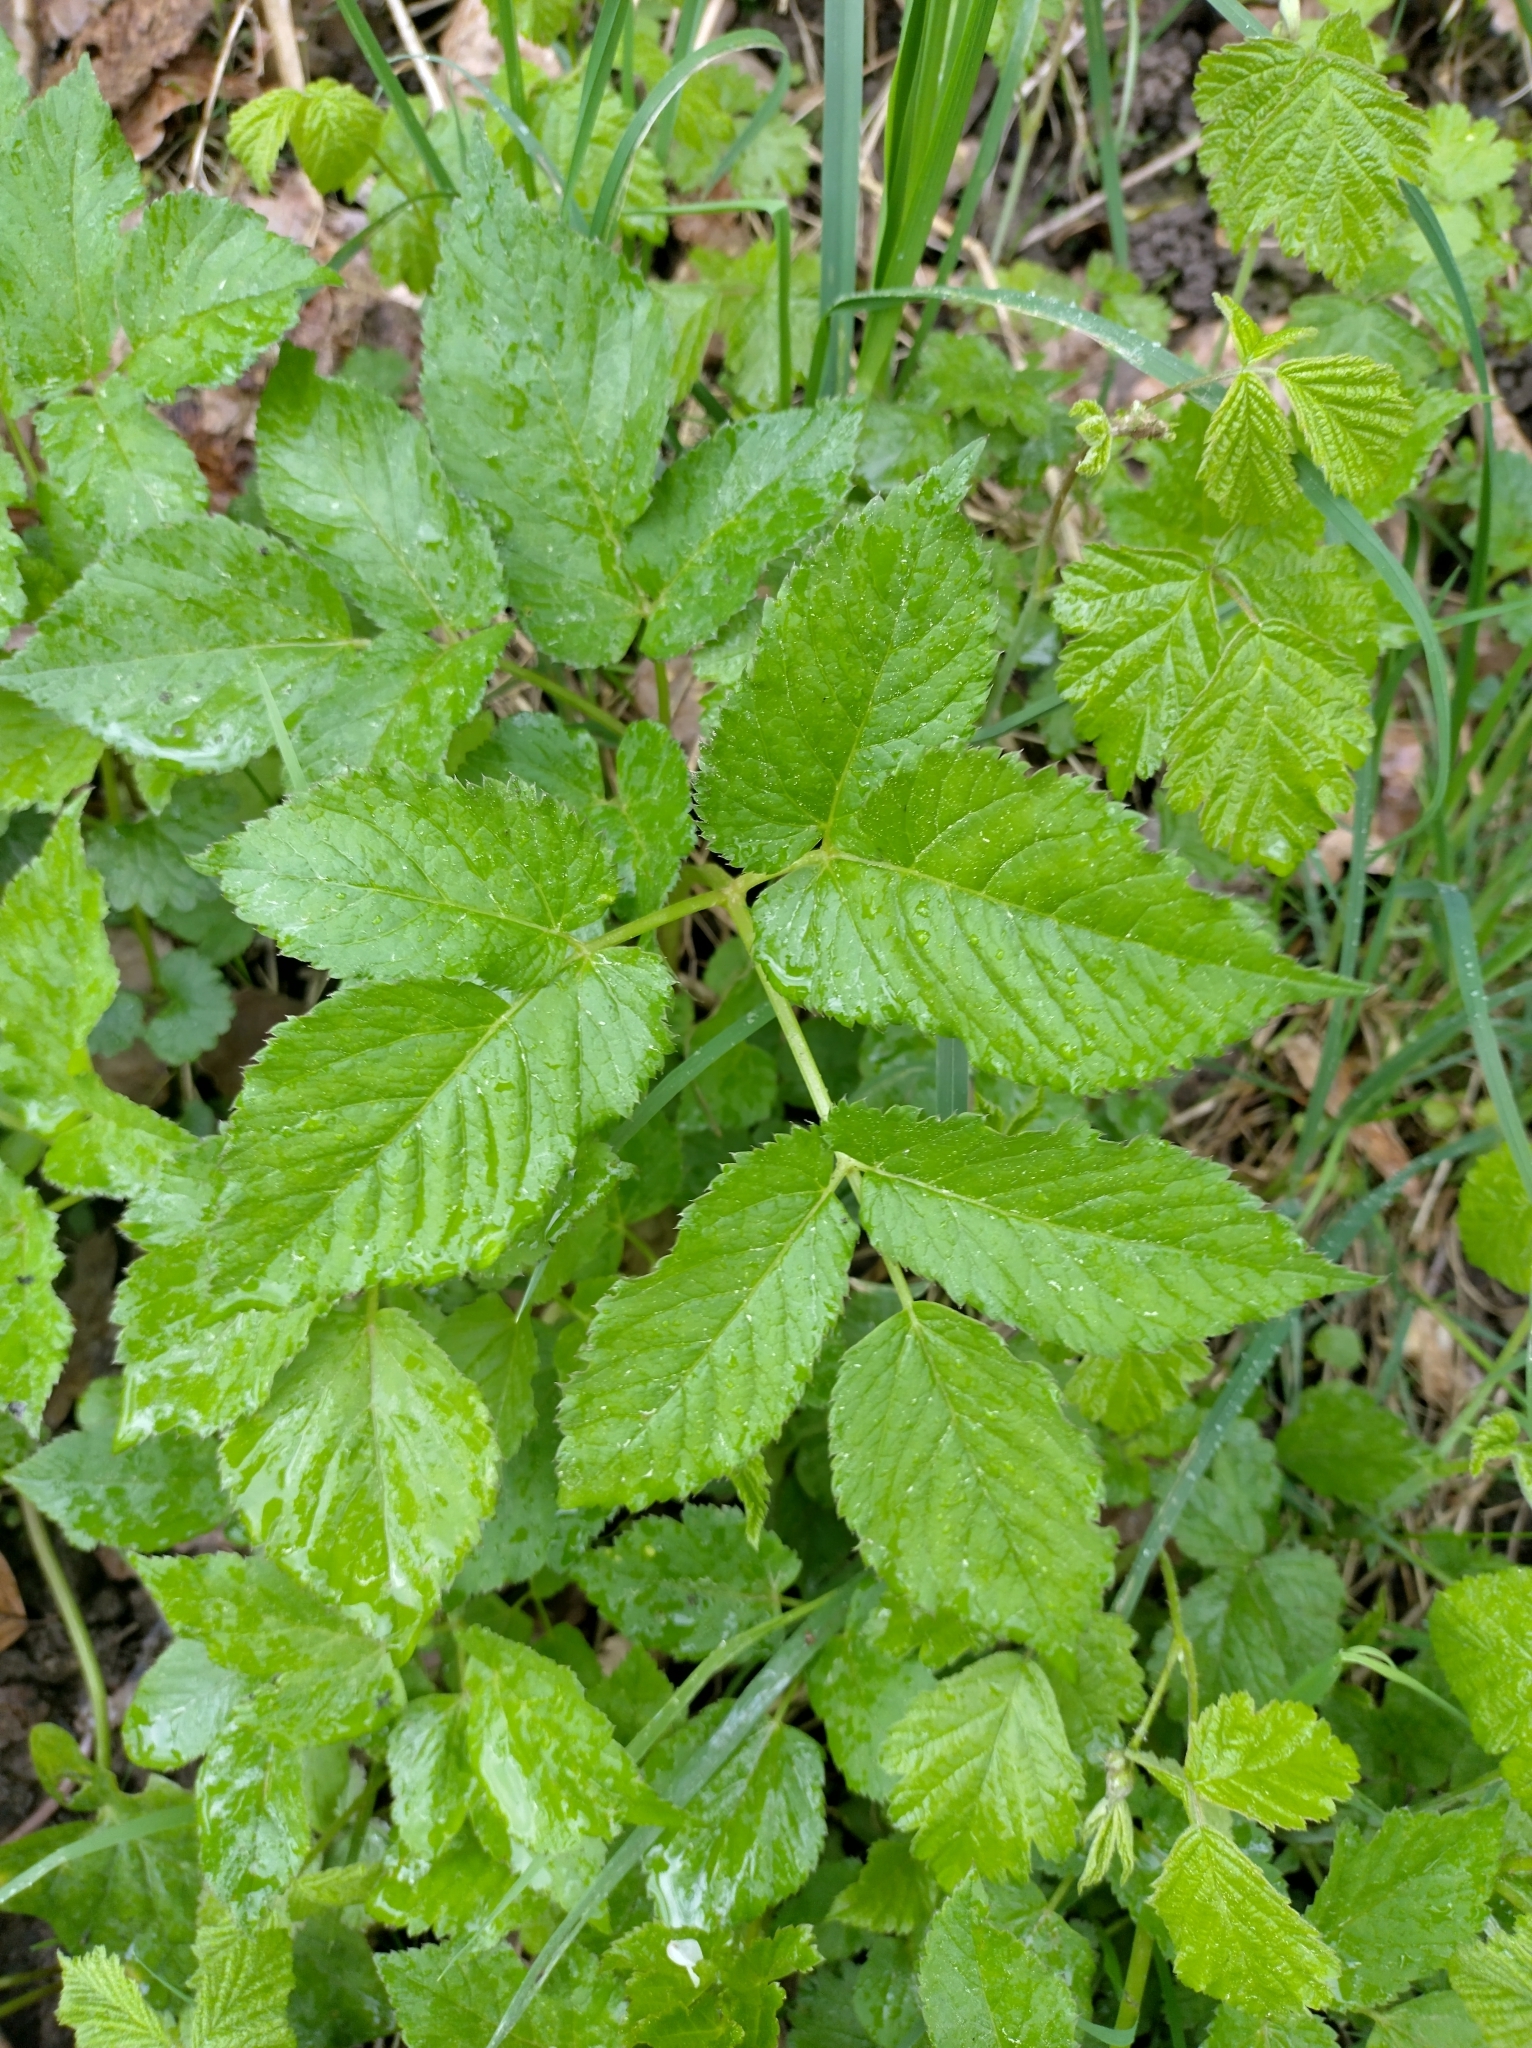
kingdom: Plantae
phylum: Tracheophyta
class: Magnoliopsida
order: Apiales
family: Apiaceae
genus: Aegopodium
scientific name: Aegopodium podagraria
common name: Ground-elder
